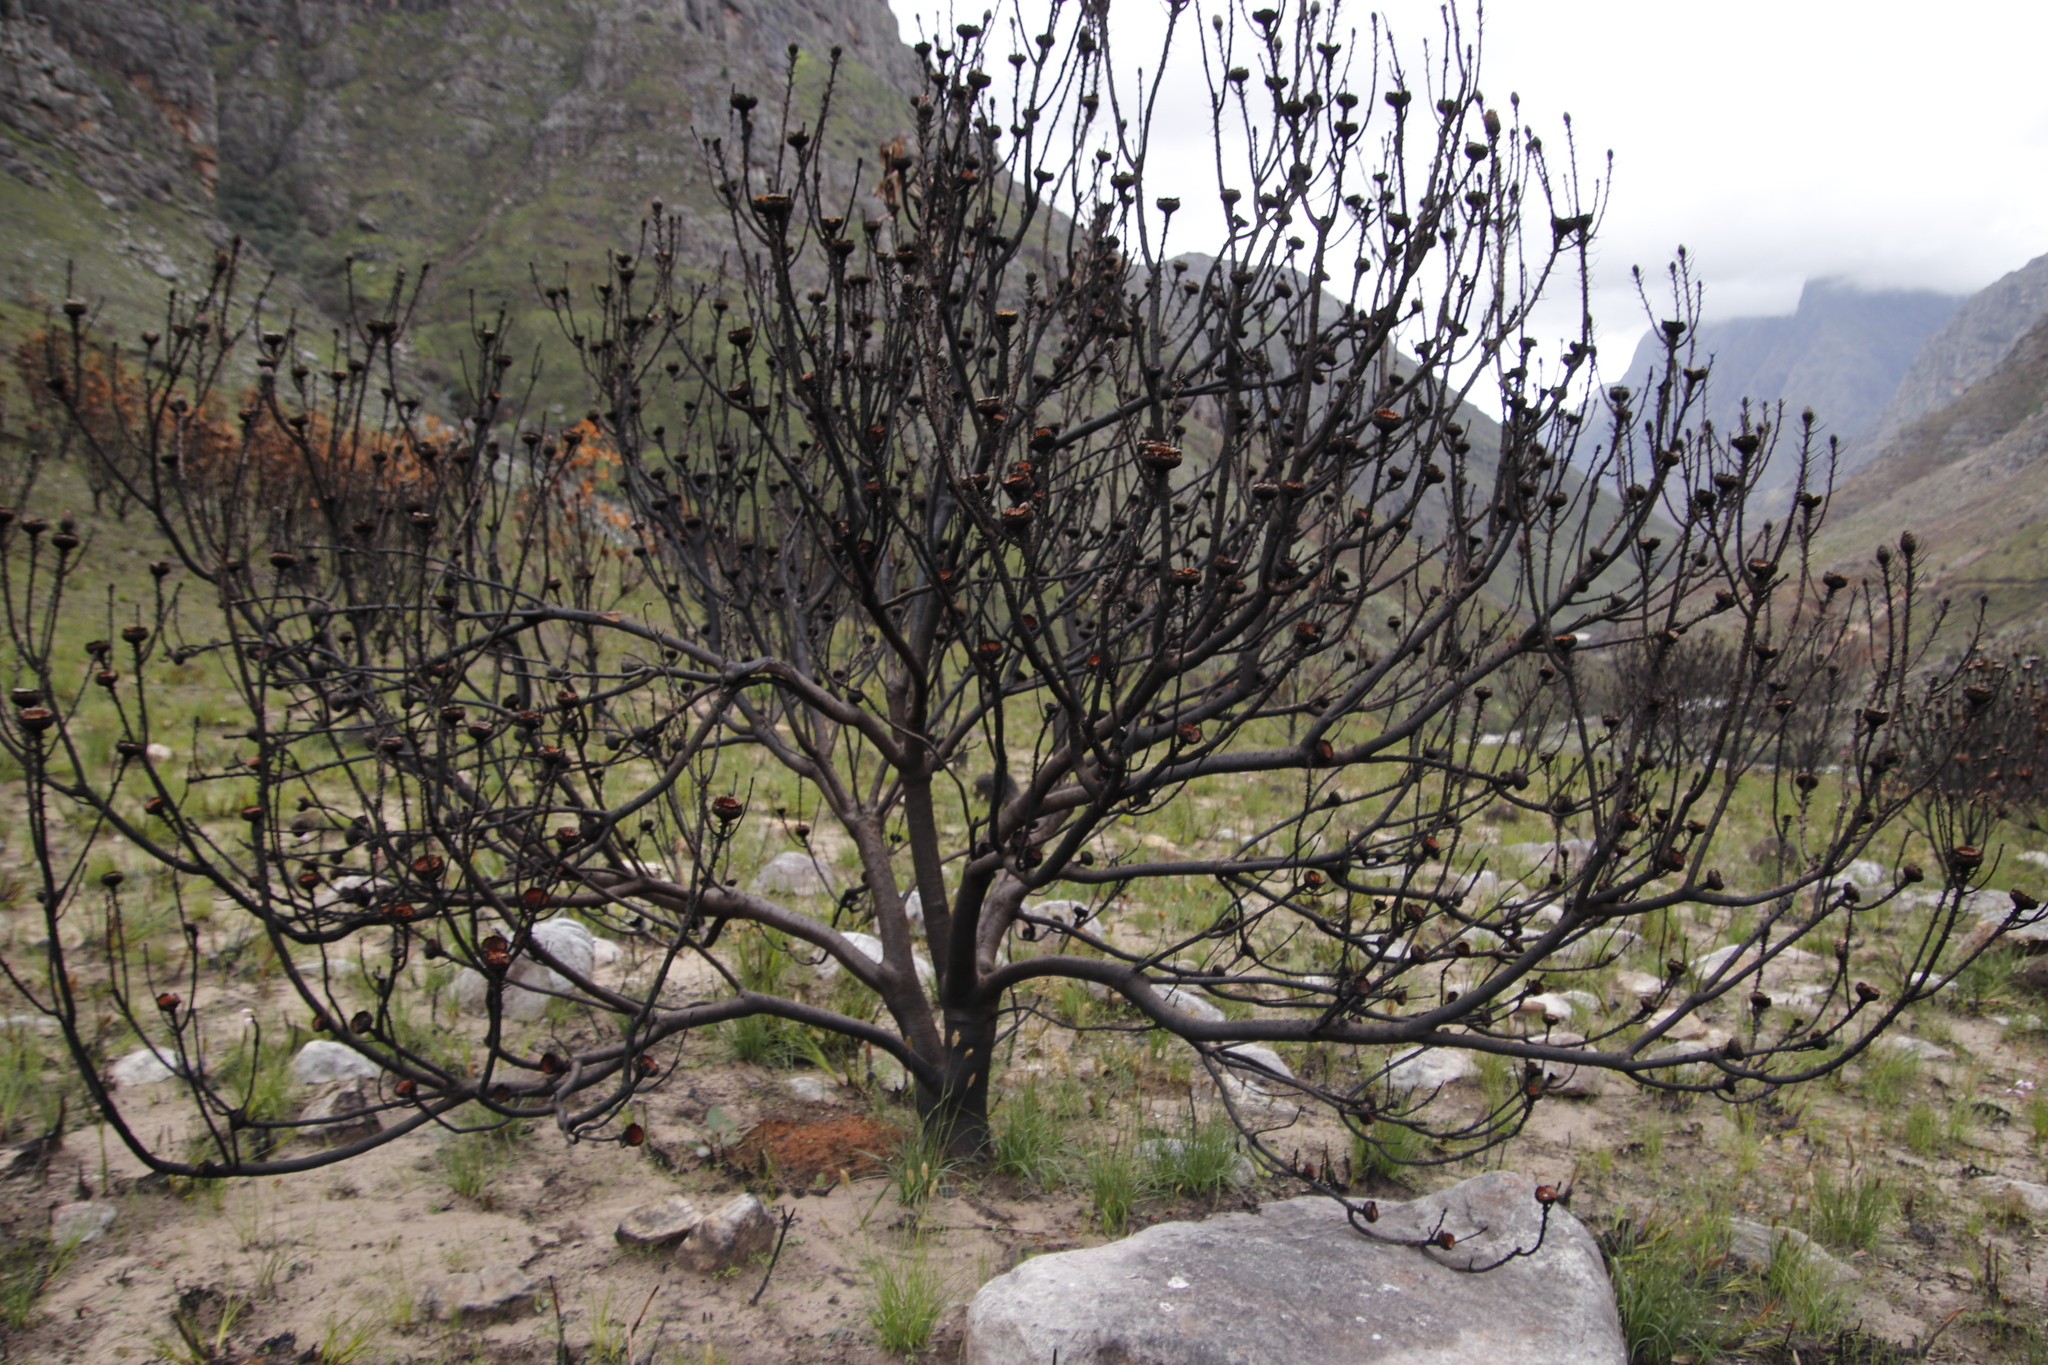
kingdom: Plantae
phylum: Tracheophyta
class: Magnoliopsida
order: Proteales
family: Proteaceae
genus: Protea
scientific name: Protea laurifolia
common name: Grey-leaf sugarbsh
